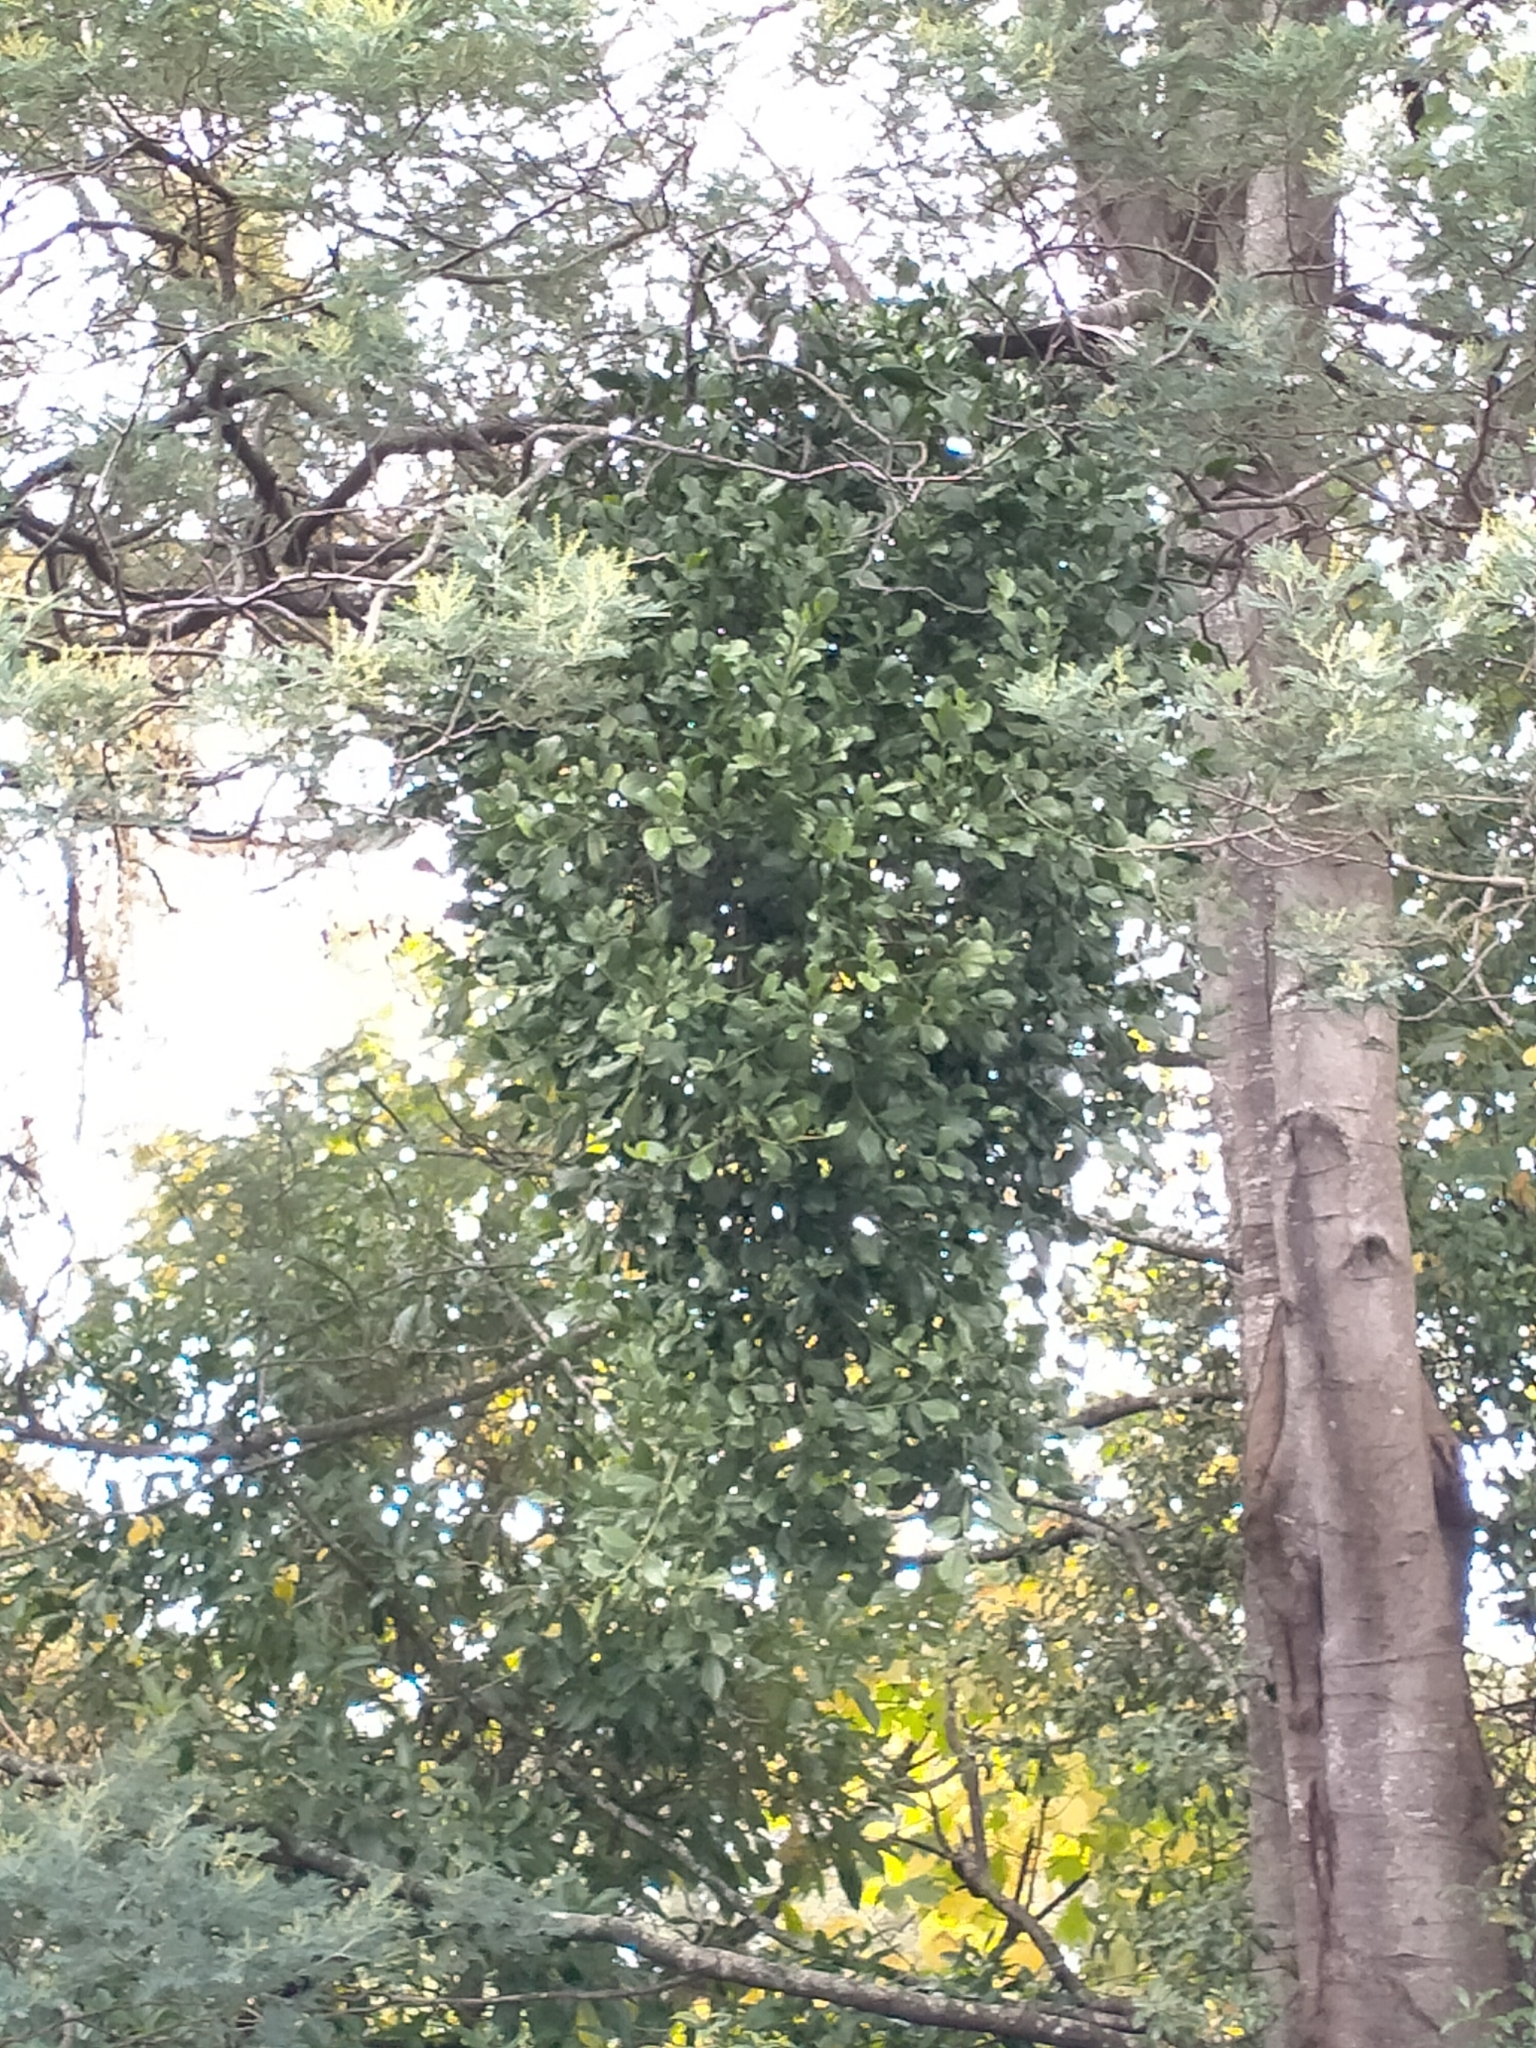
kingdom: Plantae
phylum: Tracheophyta
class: Magnoliopsida
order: Santalales
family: Loranthaceae
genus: Ileostylus
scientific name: Ileostylus micranthus
